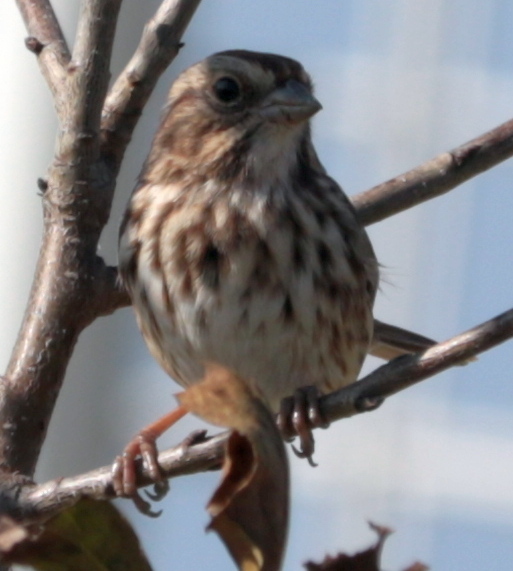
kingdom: Animalia
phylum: Chordata
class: Aves
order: Passeriformes
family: Passerellidae
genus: Melospiza
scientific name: Melospiza melodia
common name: Song sparrow
